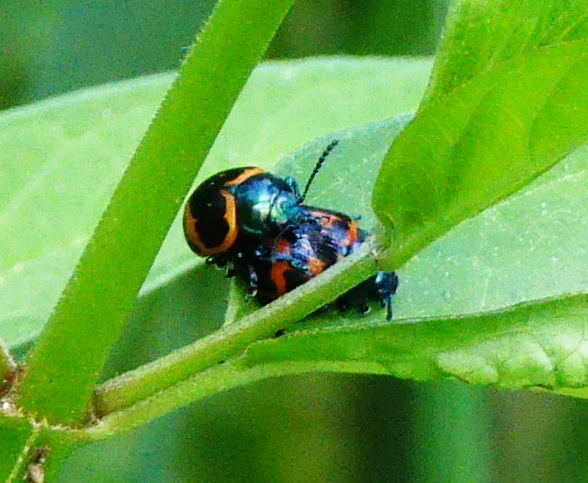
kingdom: Animalia
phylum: Arthropoda
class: Insecta
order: Coleoptera
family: Chrysomelidae
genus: Labidomera
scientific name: Labidomera clivicollis
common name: Swamp milkweed leaf beetle
